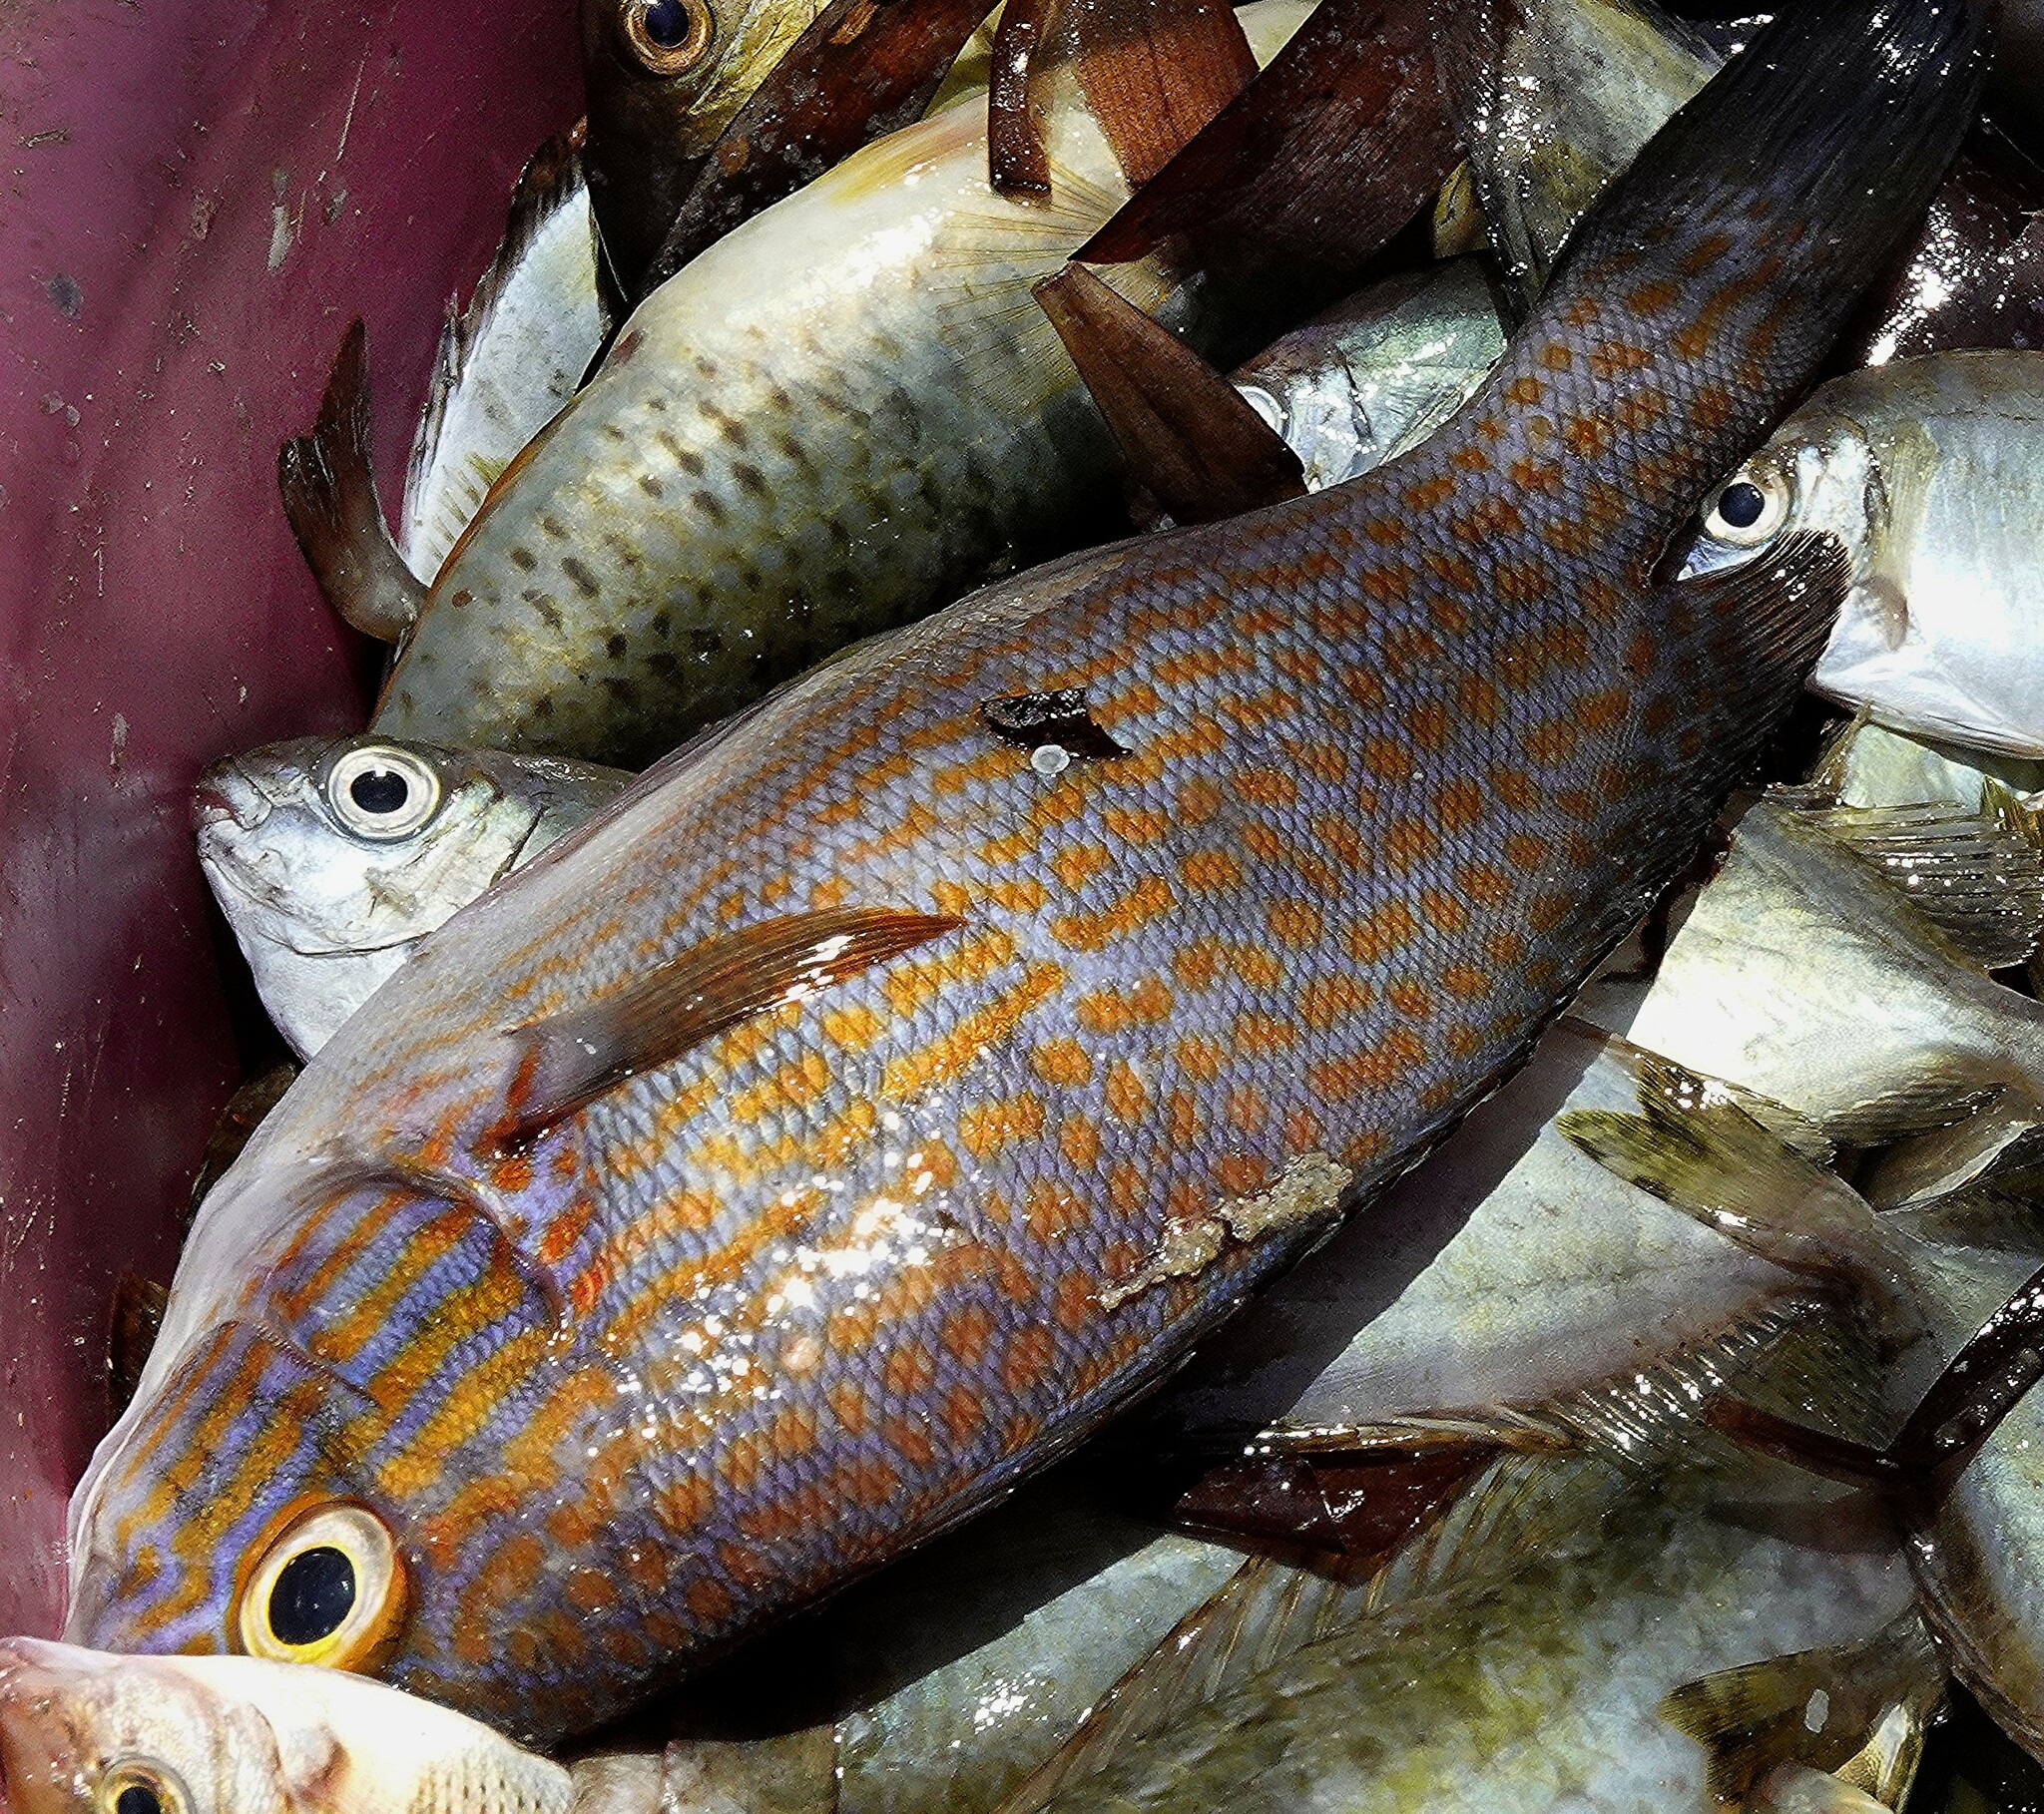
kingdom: Animalia
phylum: Chordata
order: Perciformes
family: Haemulidae
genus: Plectorhinchus
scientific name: Plectorhinchus flavomaculatus
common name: Netted sweetlips
